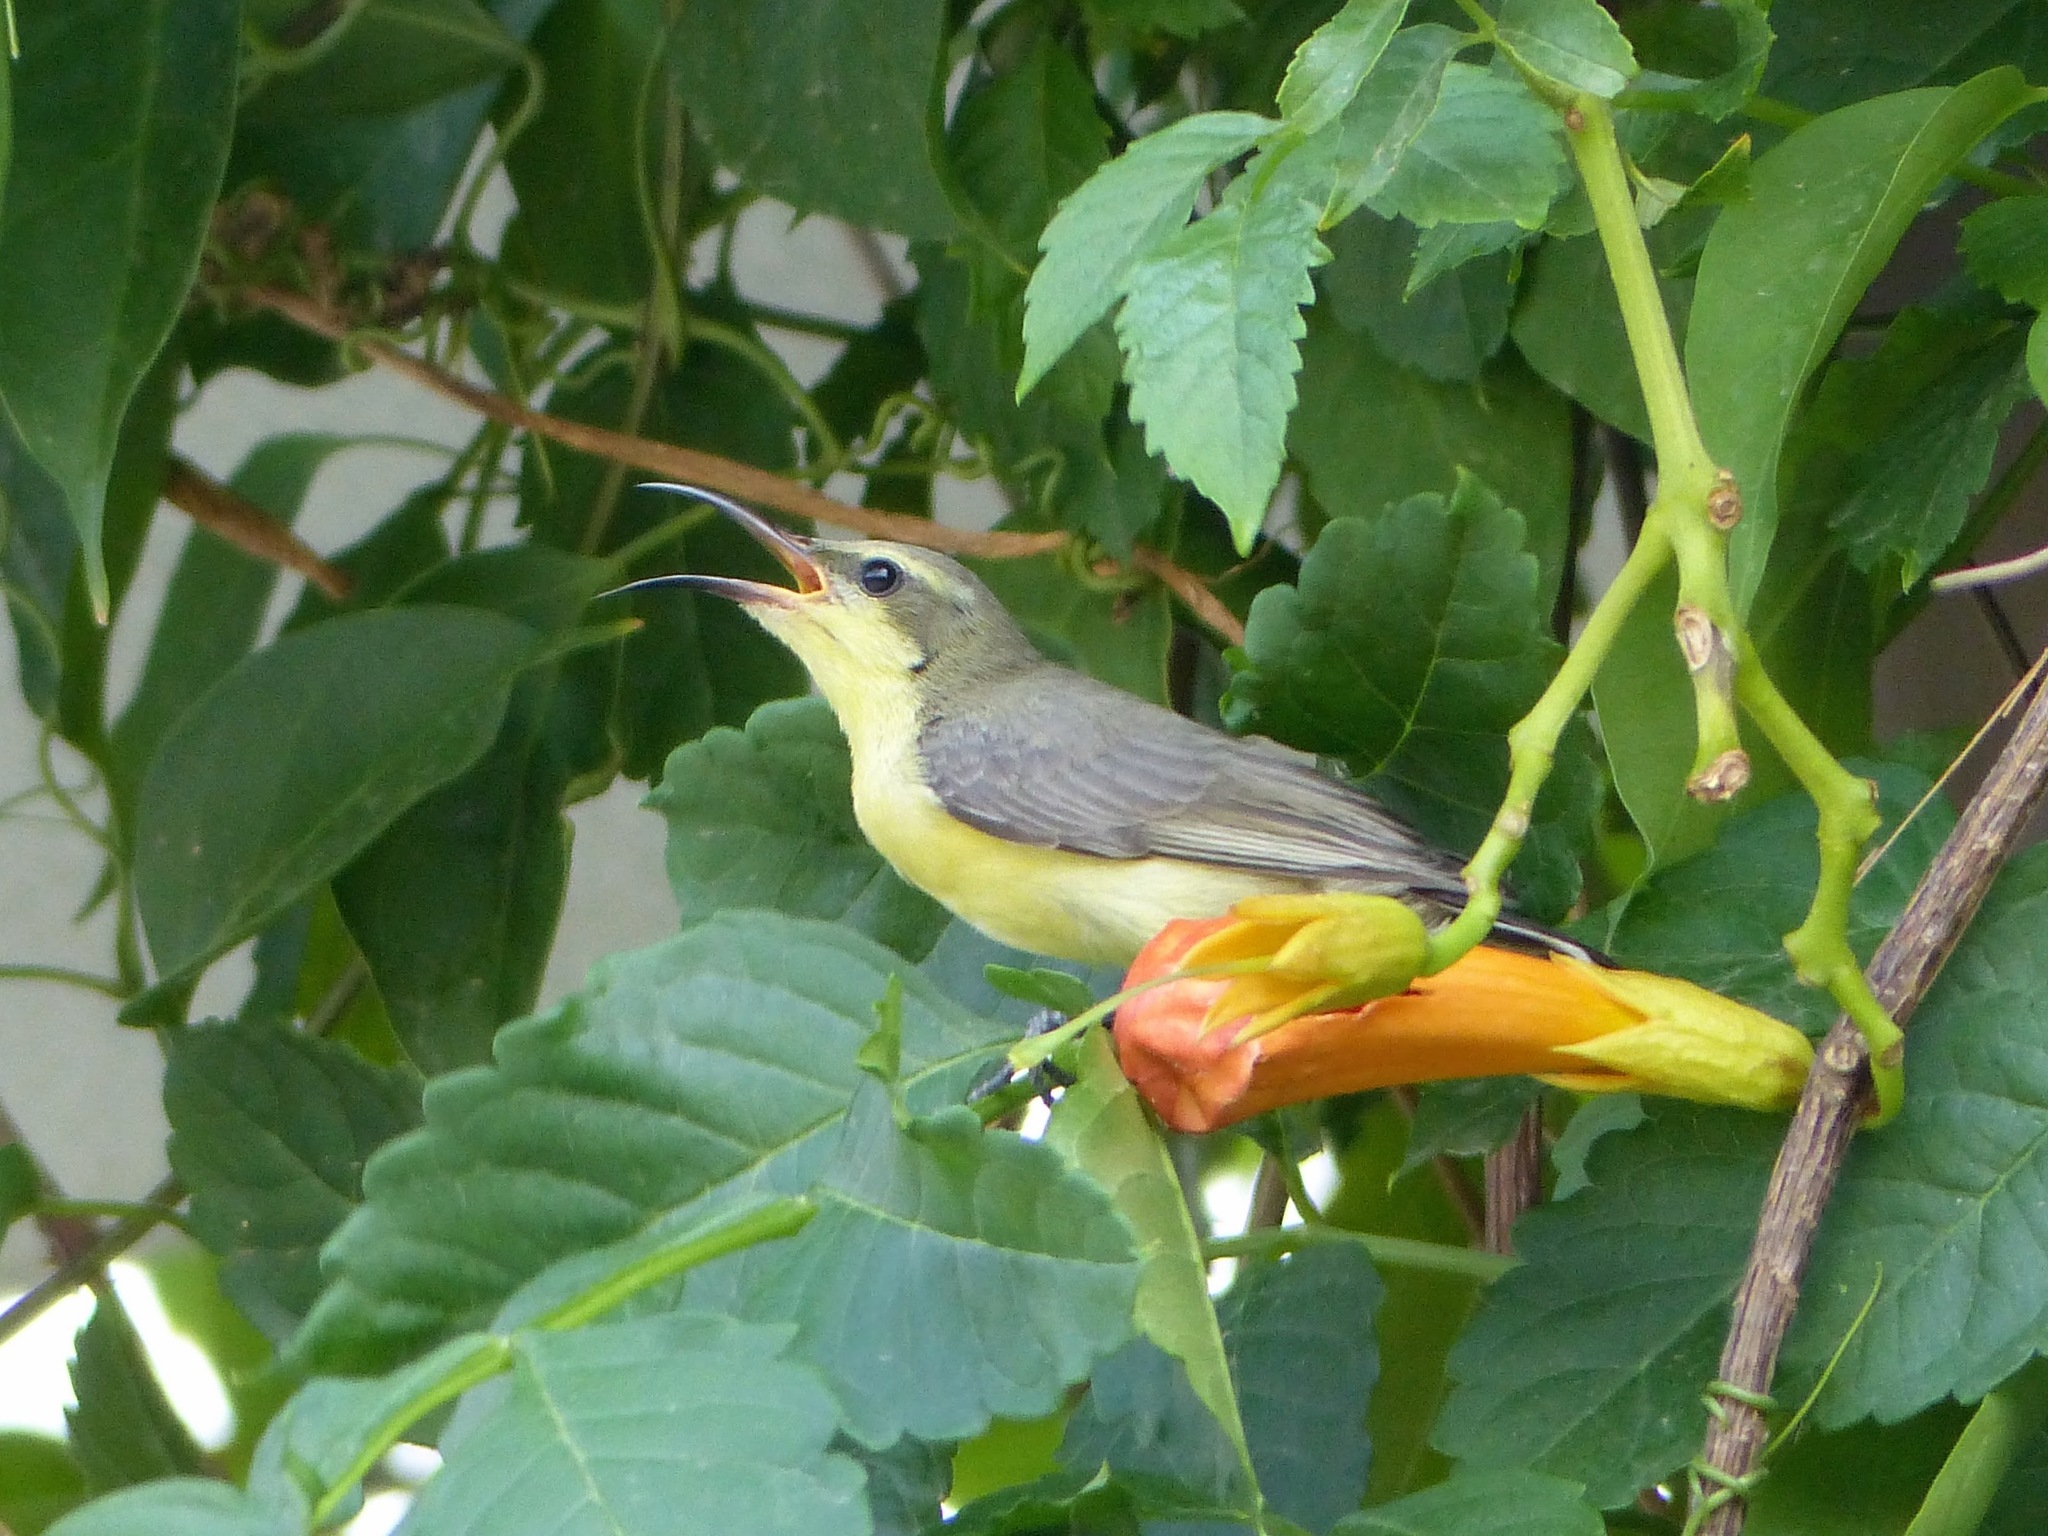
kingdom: Animalia
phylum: Chordata
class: Aves
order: Passeriformes
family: Nectariniidae
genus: Cinnyris
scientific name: Cinnyris asiaticus
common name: Purple sunbird
